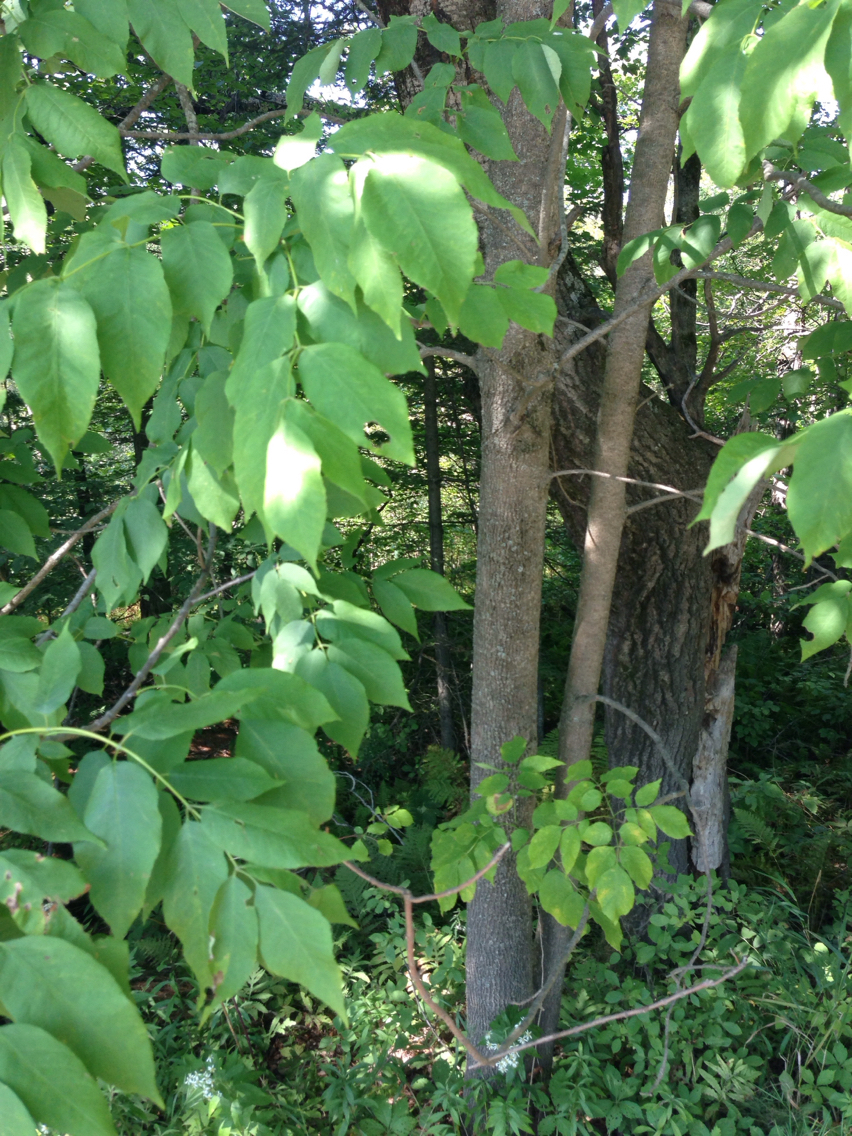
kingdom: Plantae
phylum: Tracheophyta
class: Magnoliopsida
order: Lamiales
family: Oleaceae
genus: Fraxinus
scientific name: Fraxinus americana
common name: White ash
